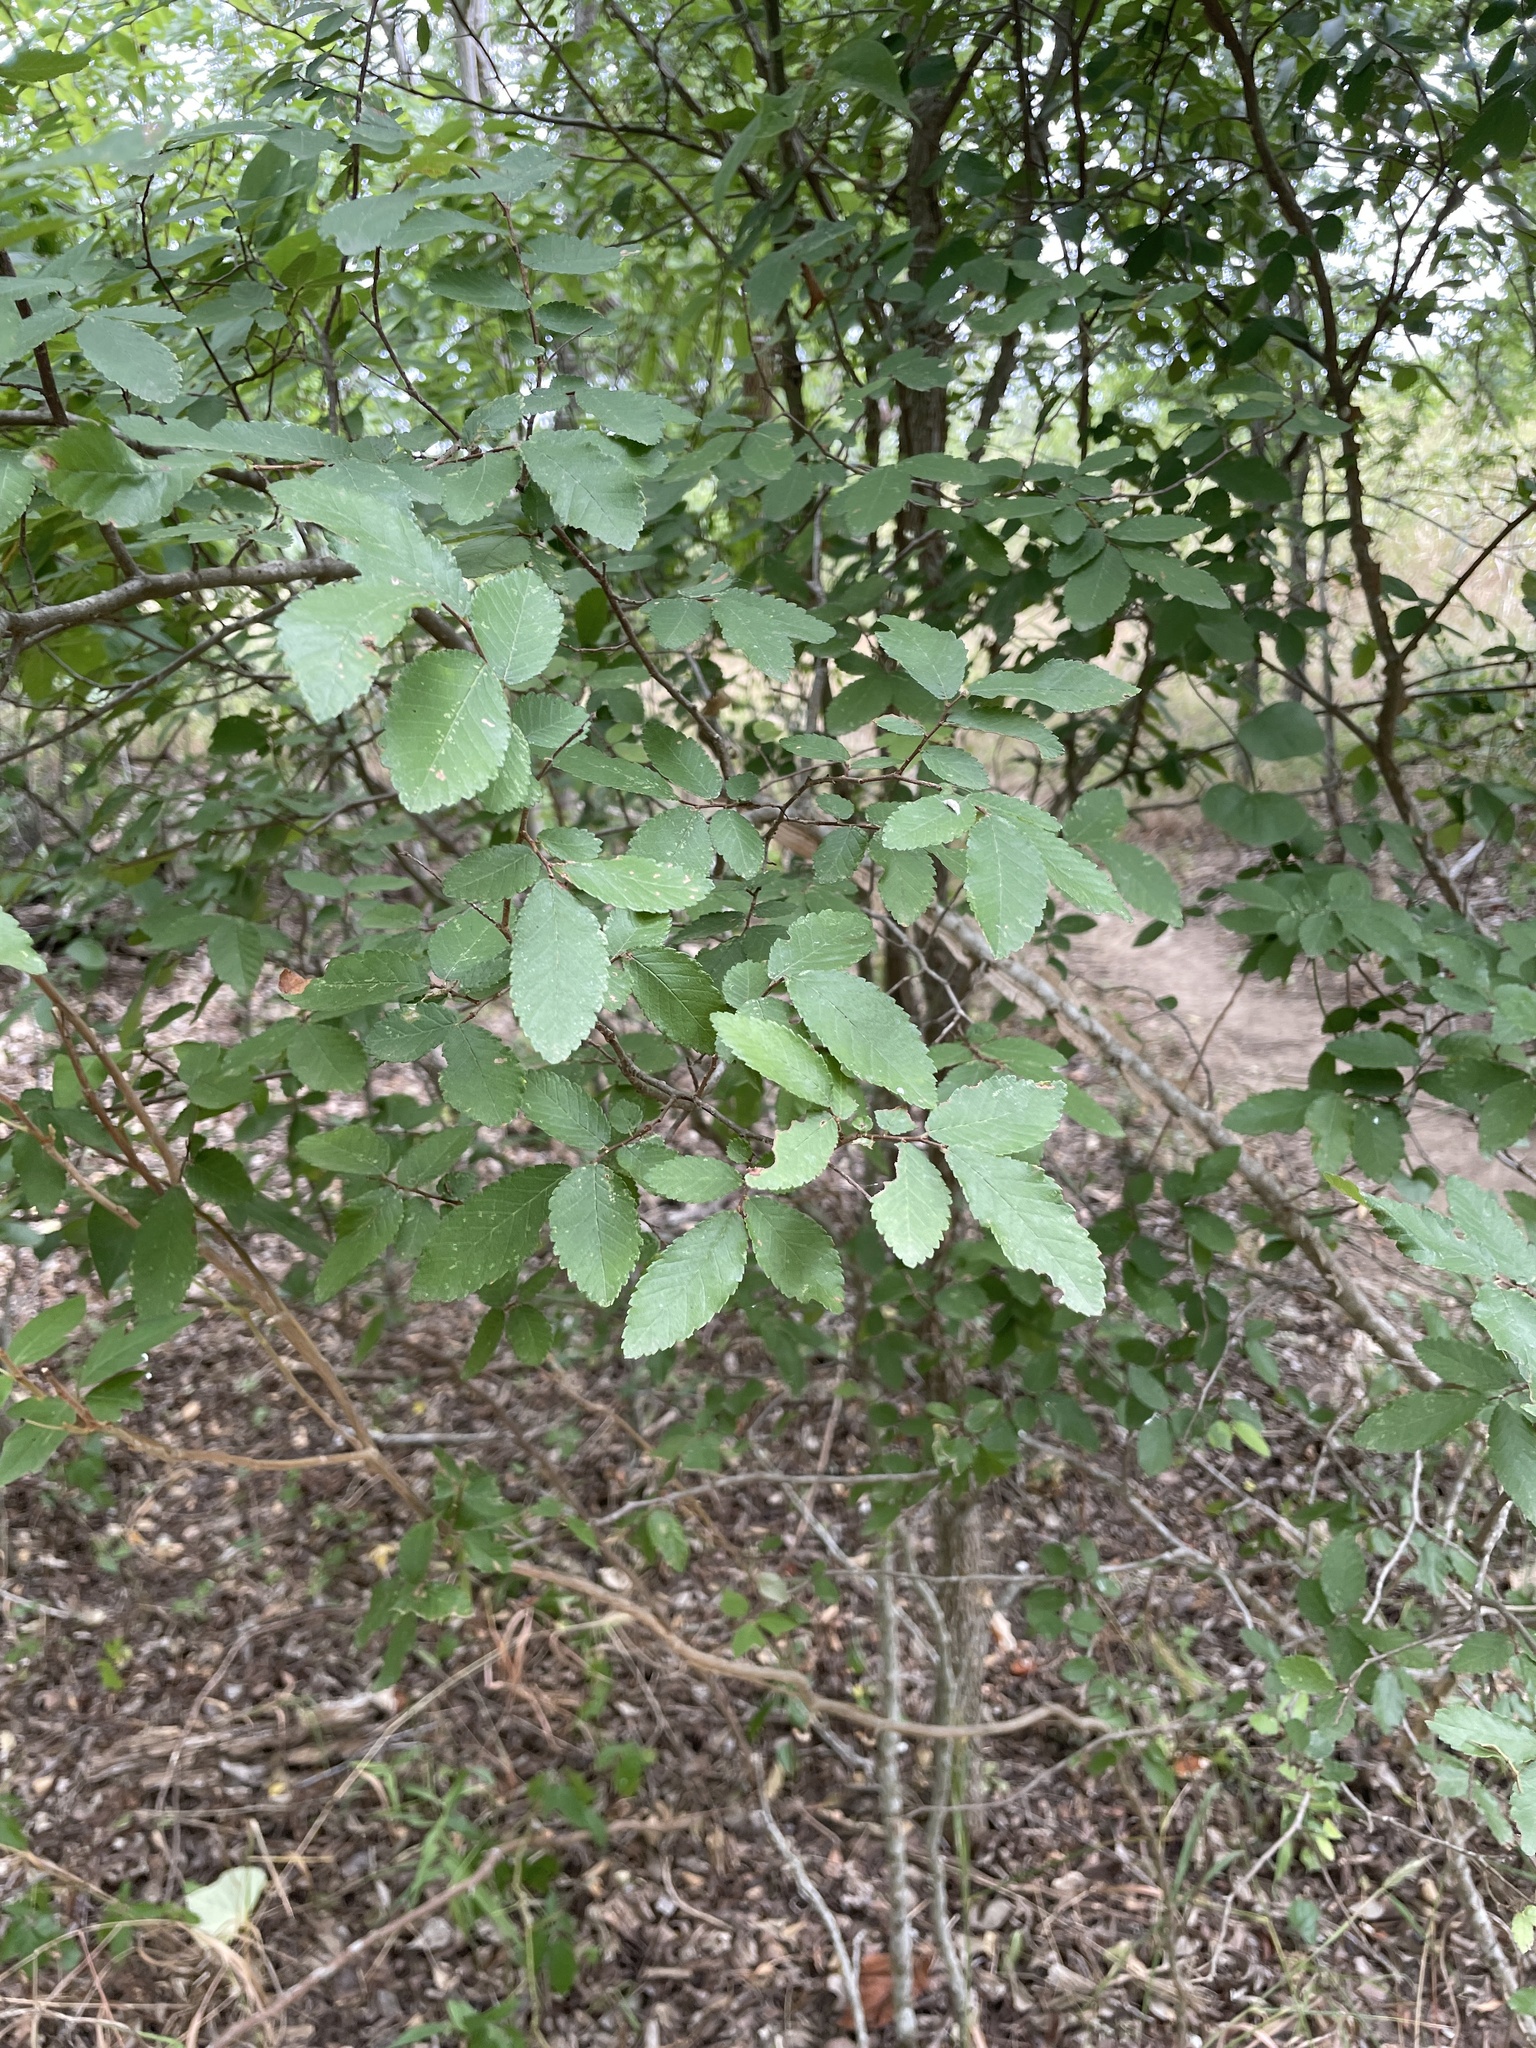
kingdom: Plantae
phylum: Tracheophyta
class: Magnoliopsida
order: Rosales
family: Ulmaceae
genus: Ulmus
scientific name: Ulmus crassifolia
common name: Basket elm
